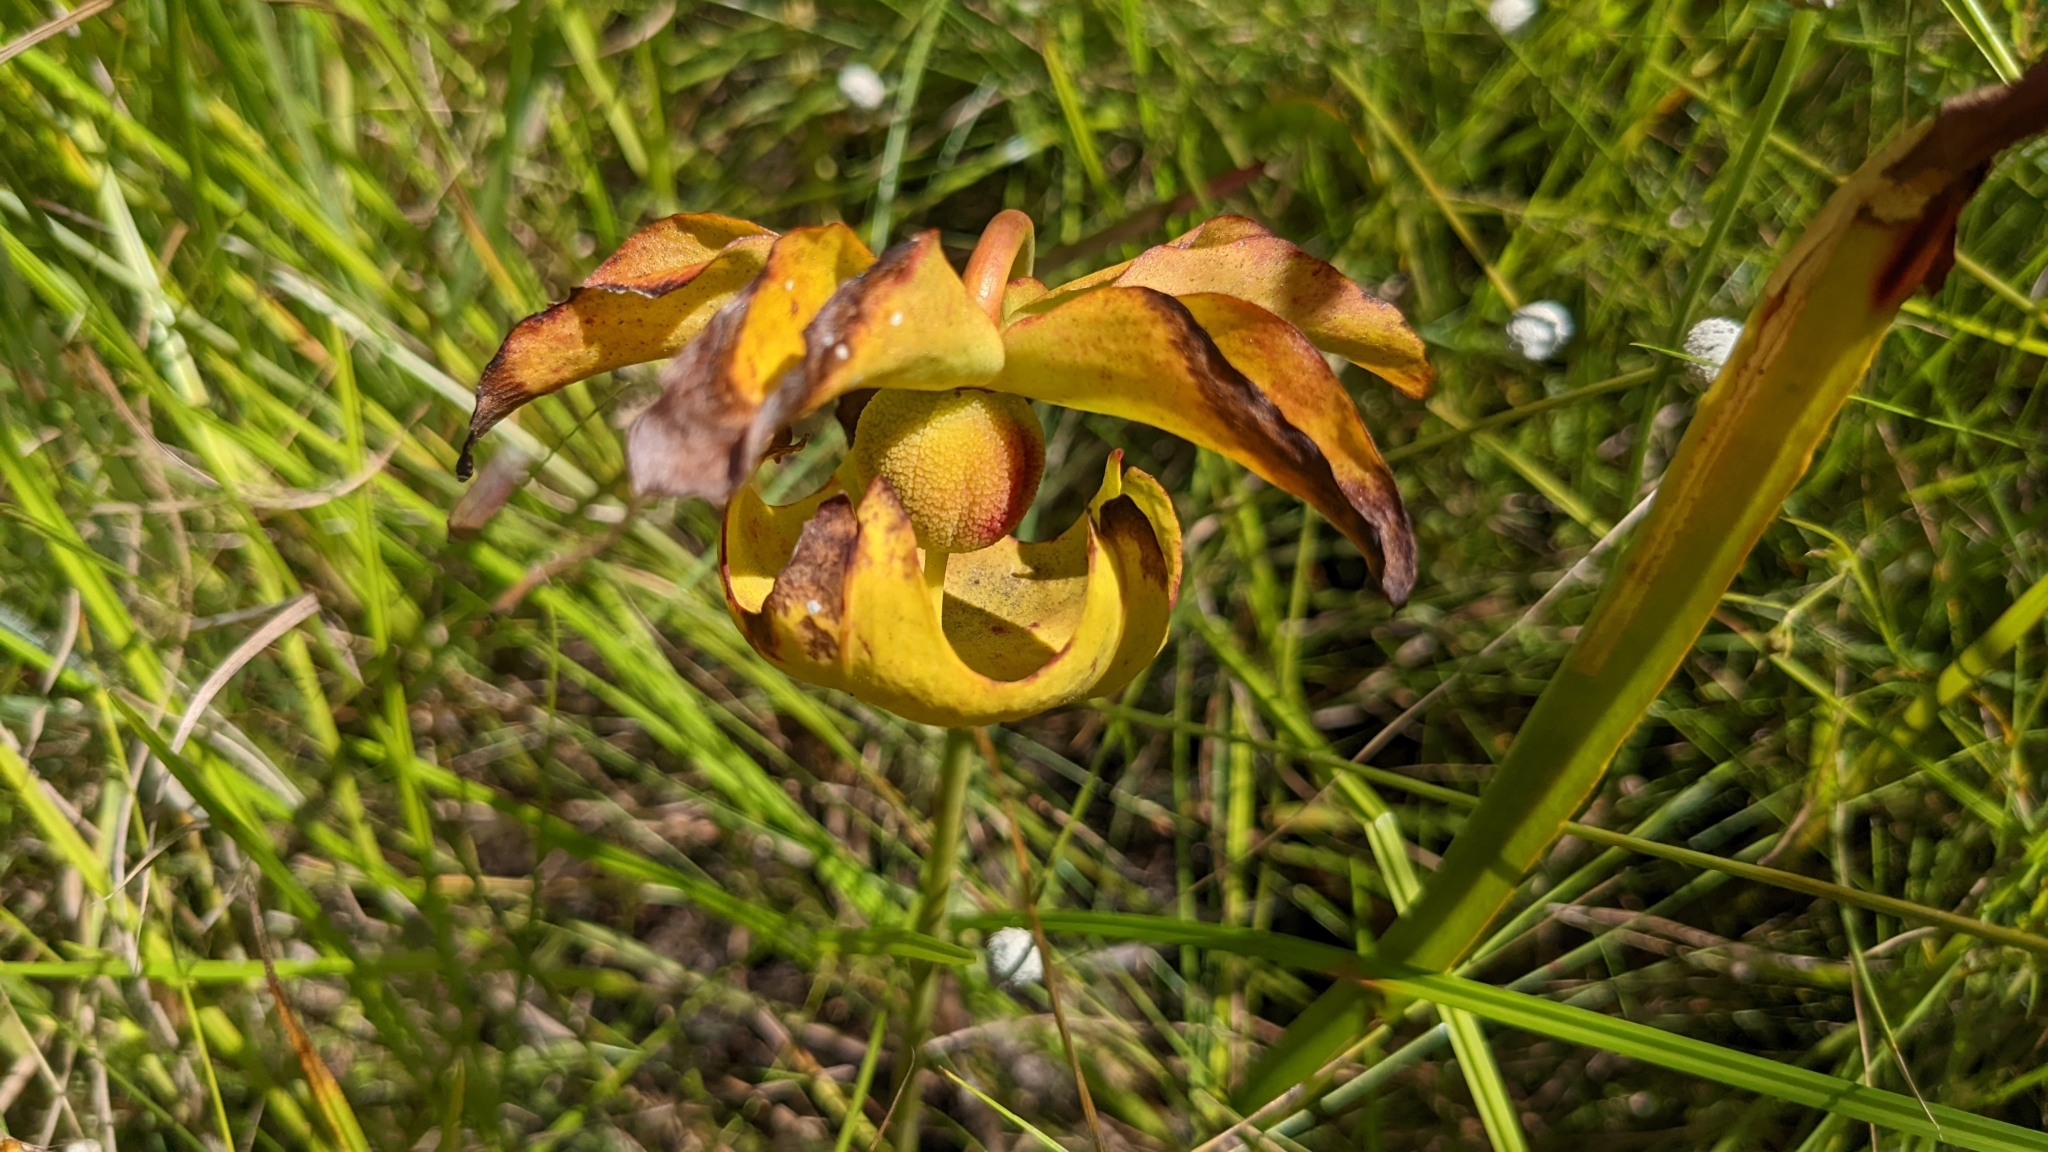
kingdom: Plantae
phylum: Tracheophyta
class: Magnoliopsida
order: Ericales
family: Sarraceniaceae
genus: Sarracenia
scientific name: Sarracenia alata
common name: Yellow trumpets
